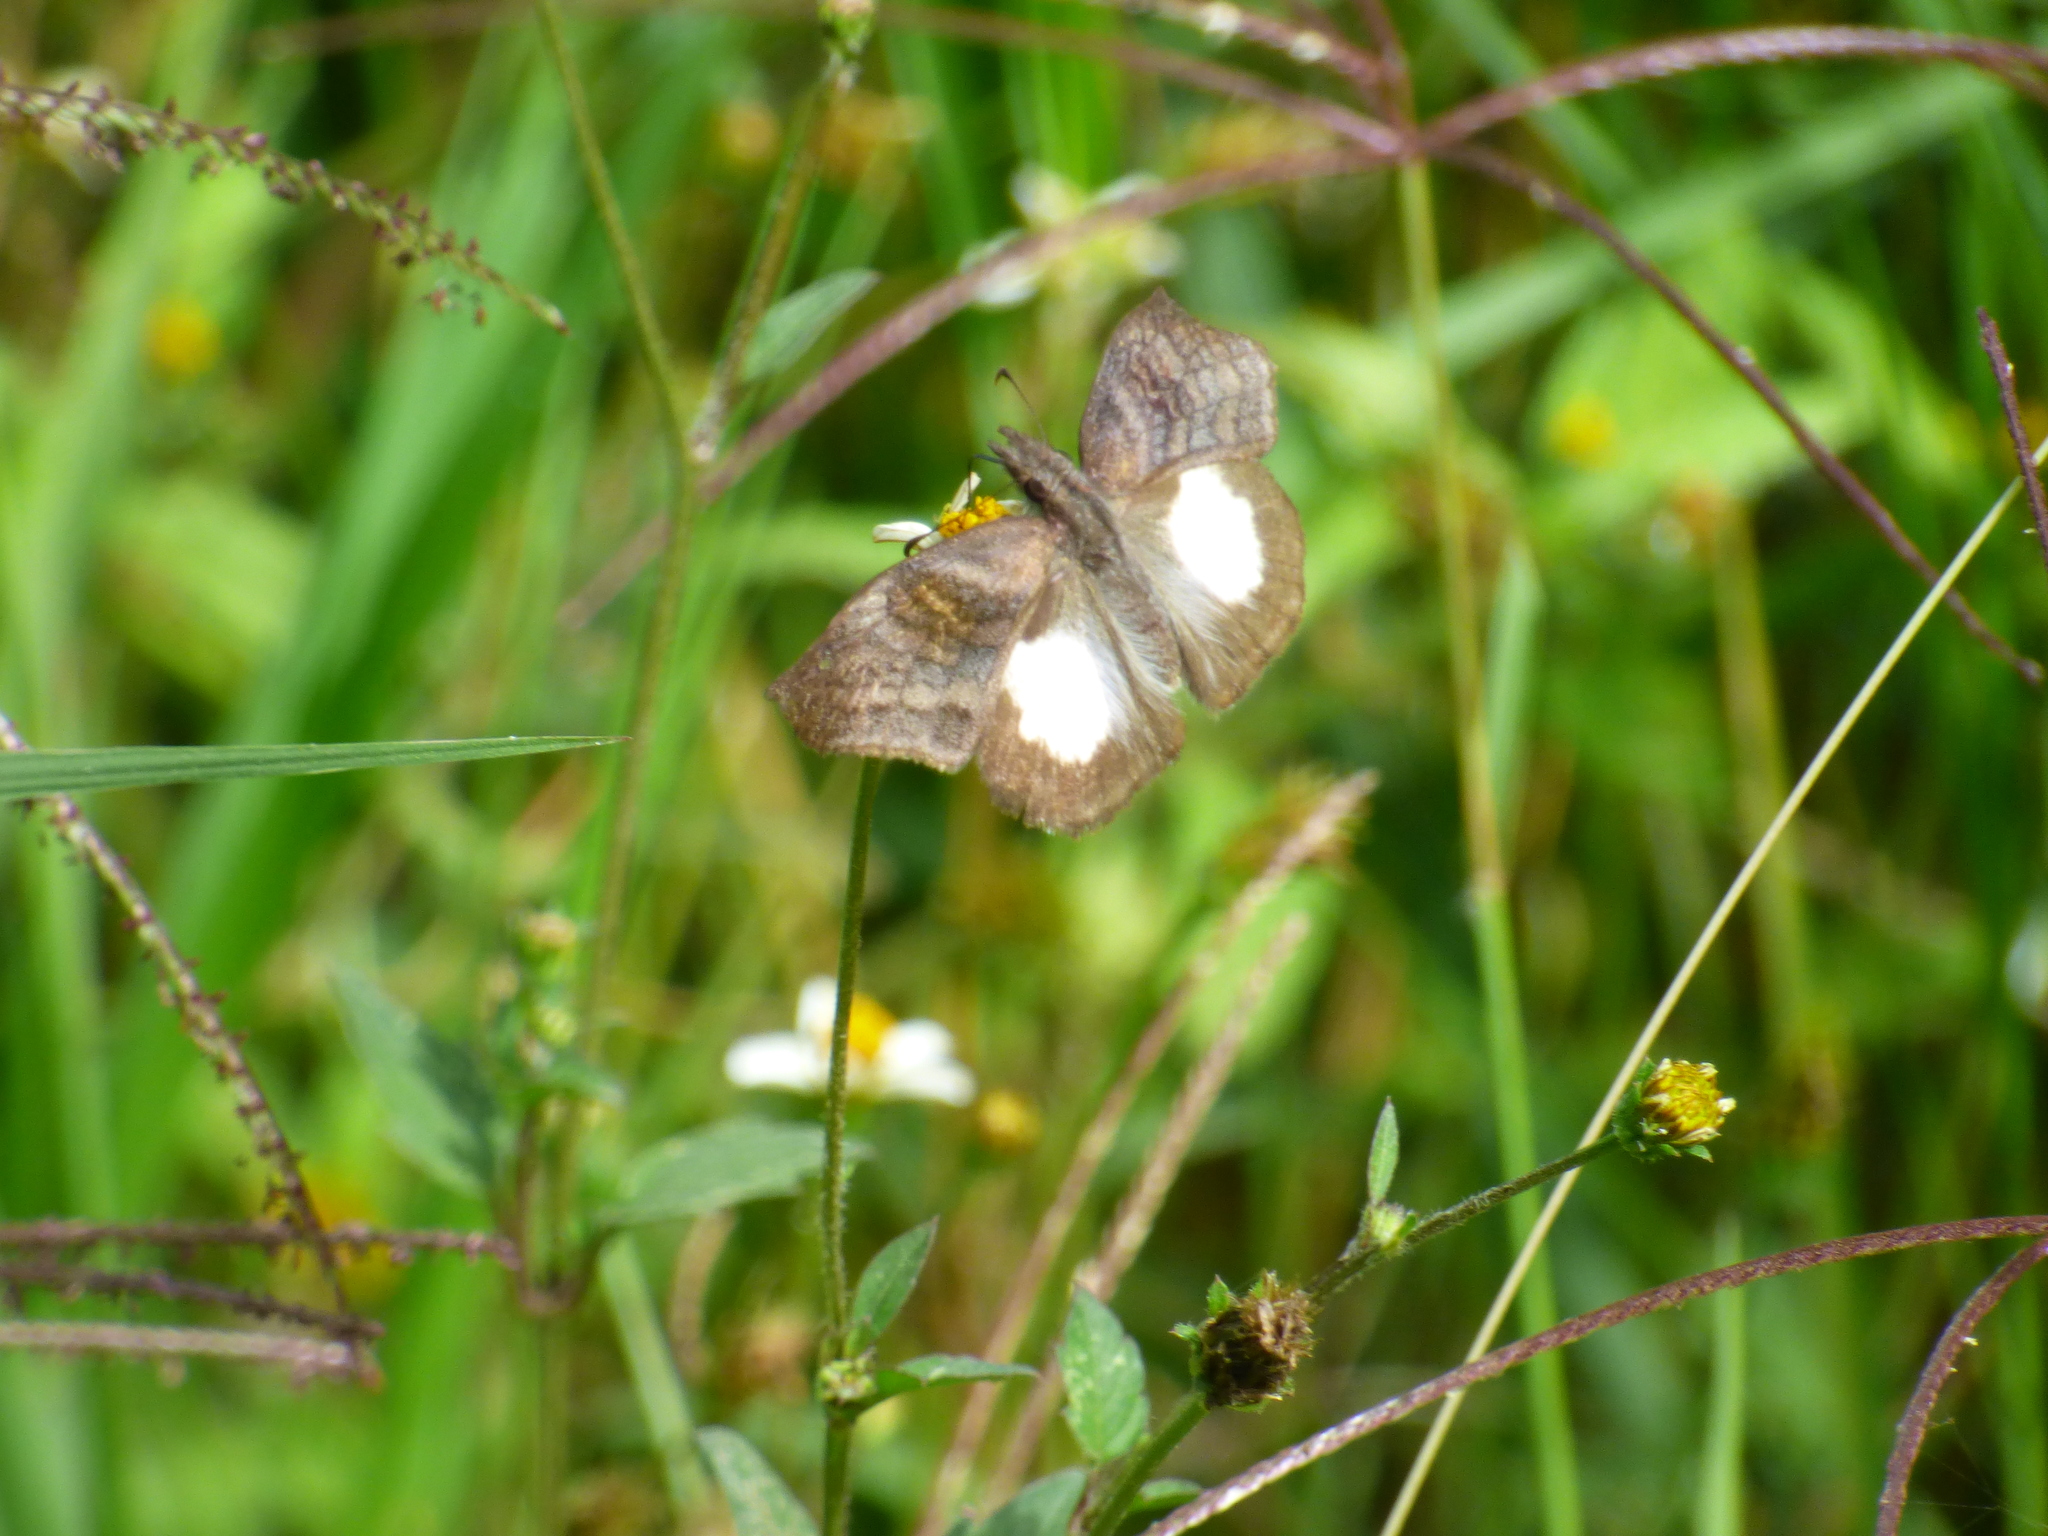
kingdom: Animalia
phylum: Arthropoda
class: Insecta
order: Lepidoptera
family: Hesperiidae
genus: Theagenes
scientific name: Theagenes albiplaga
